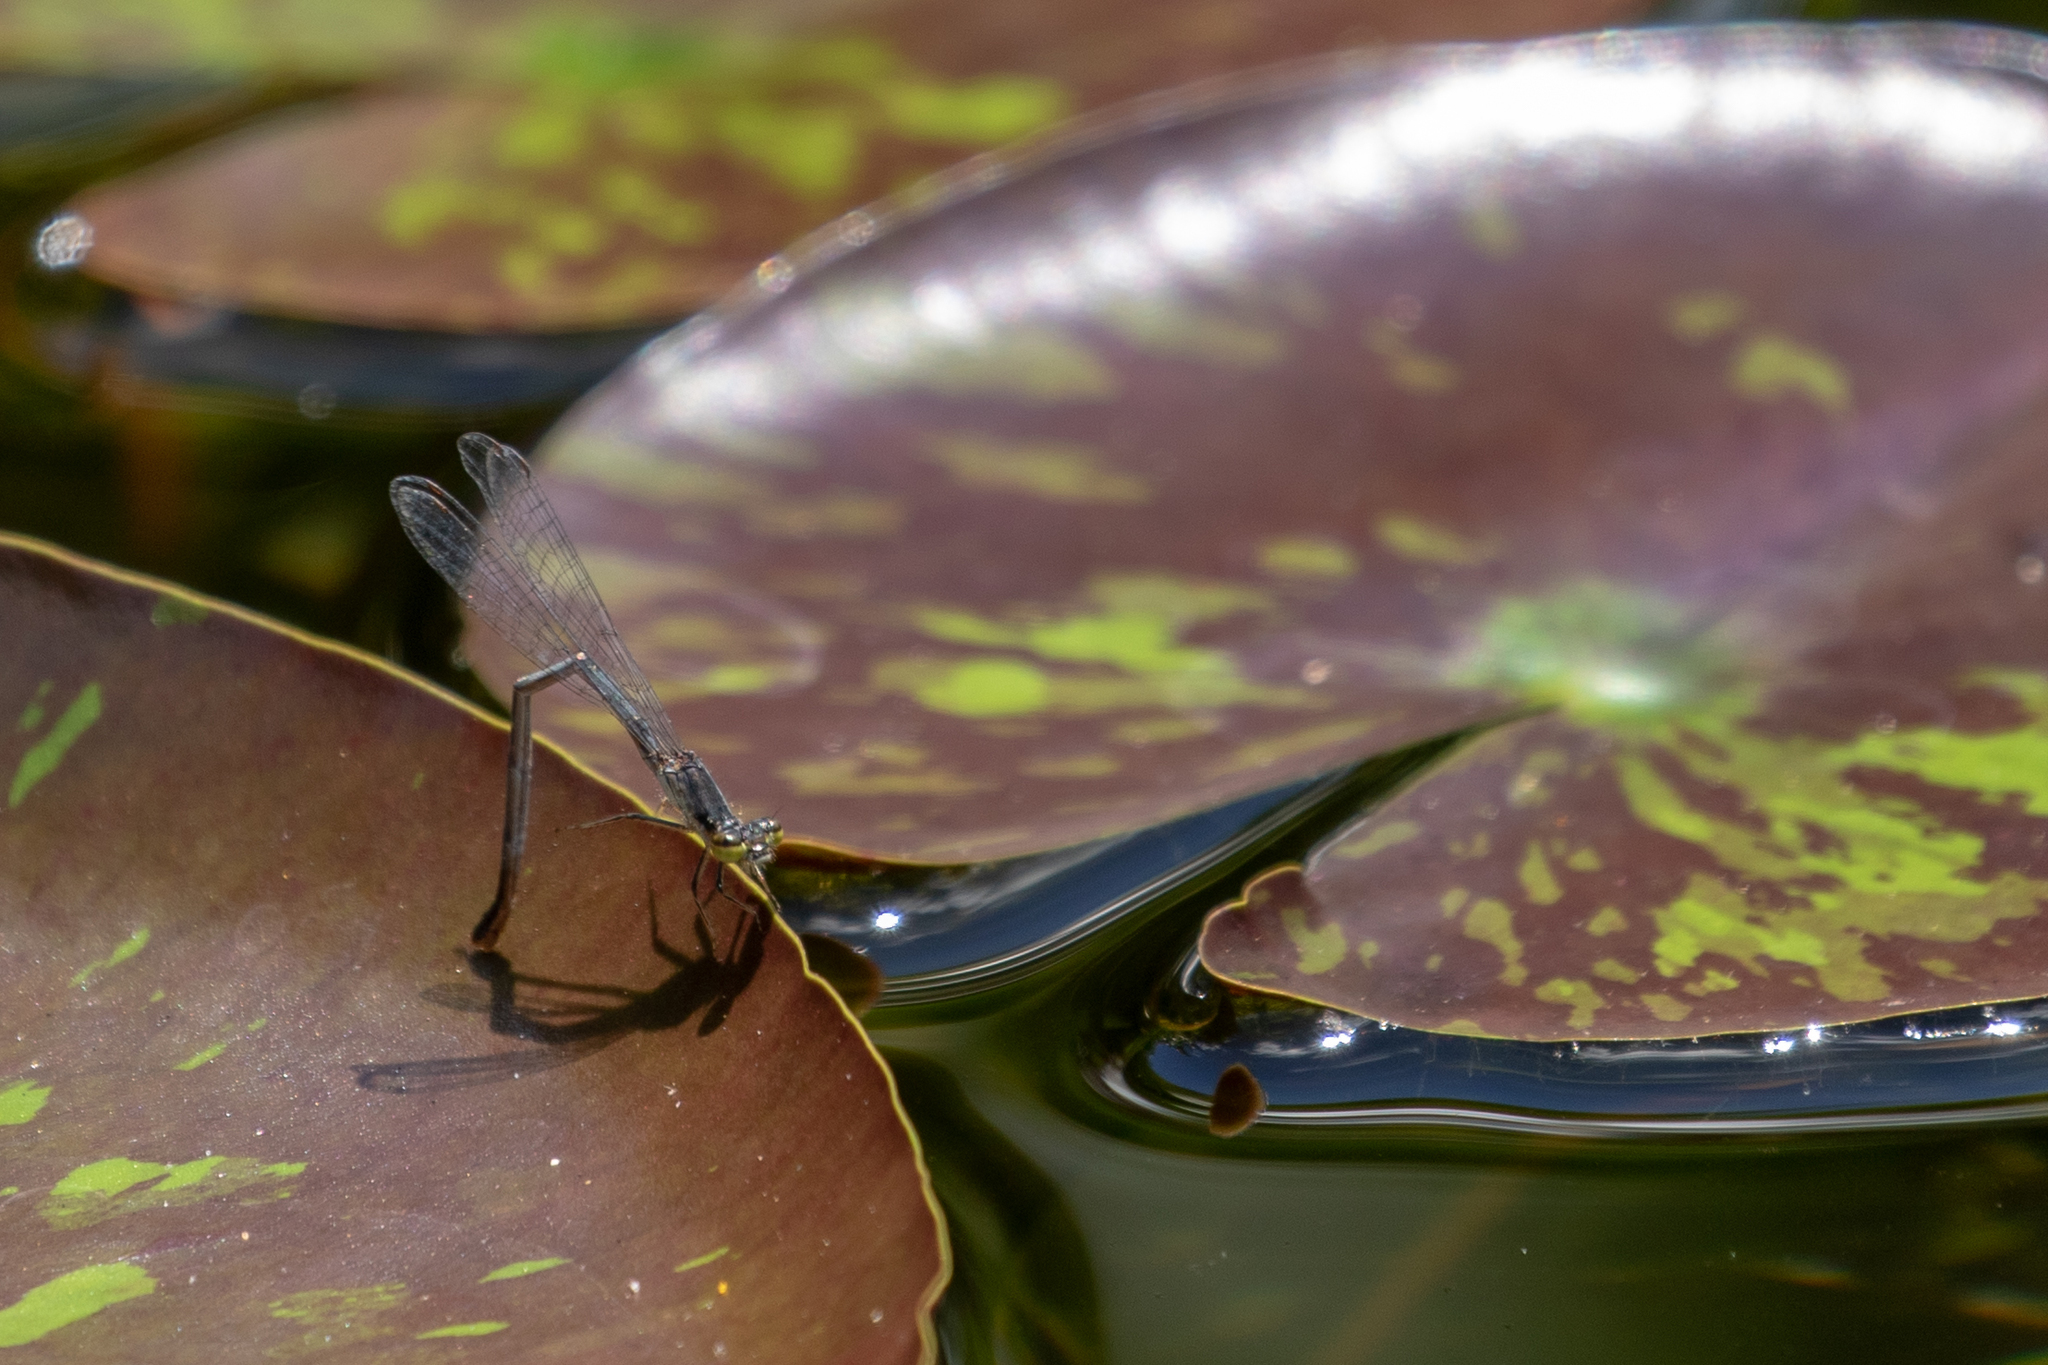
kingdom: Animalia
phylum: Arthropoda
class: Insecta
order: Odonata
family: Coenagrionidae
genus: Ischnura
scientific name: Ischnura posita
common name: Fragile forktail
